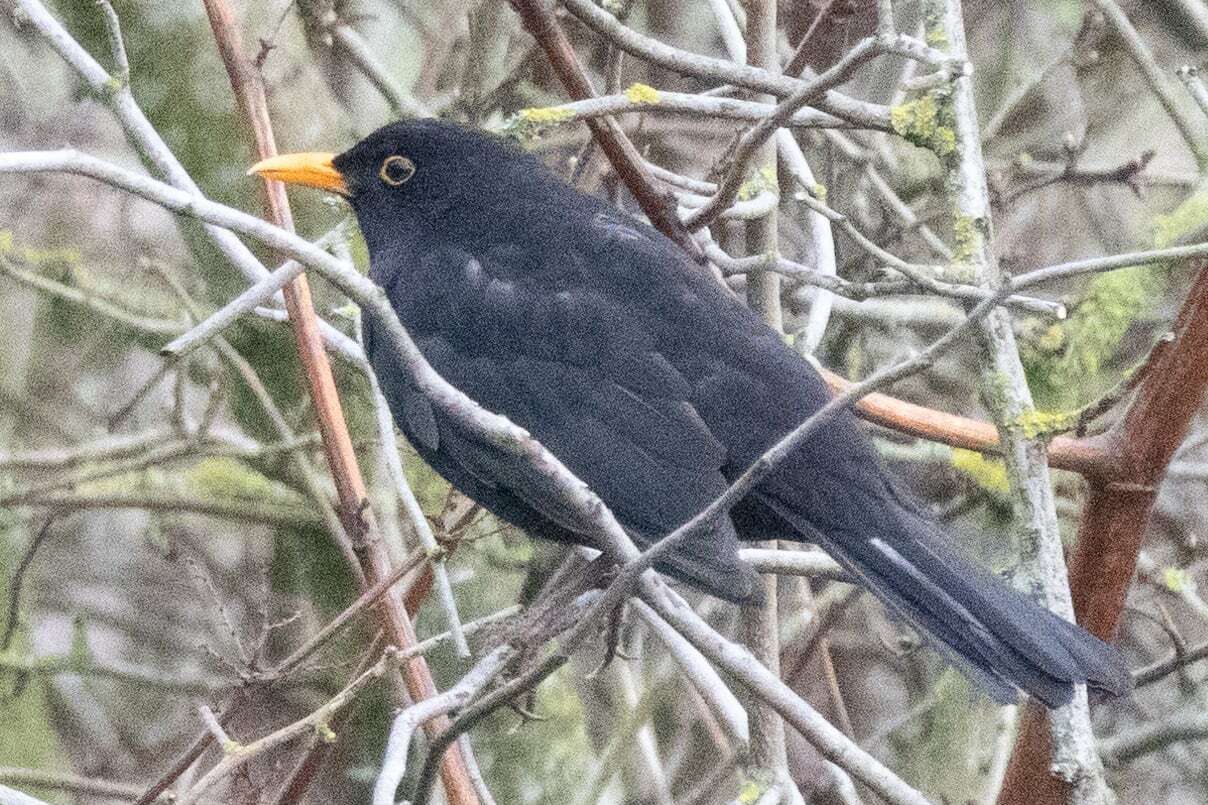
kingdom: Animalia
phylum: Chordata
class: Aves
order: Passeriformes
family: Turdidae
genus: Turdus
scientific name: Turdus merula
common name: Common blackbird
